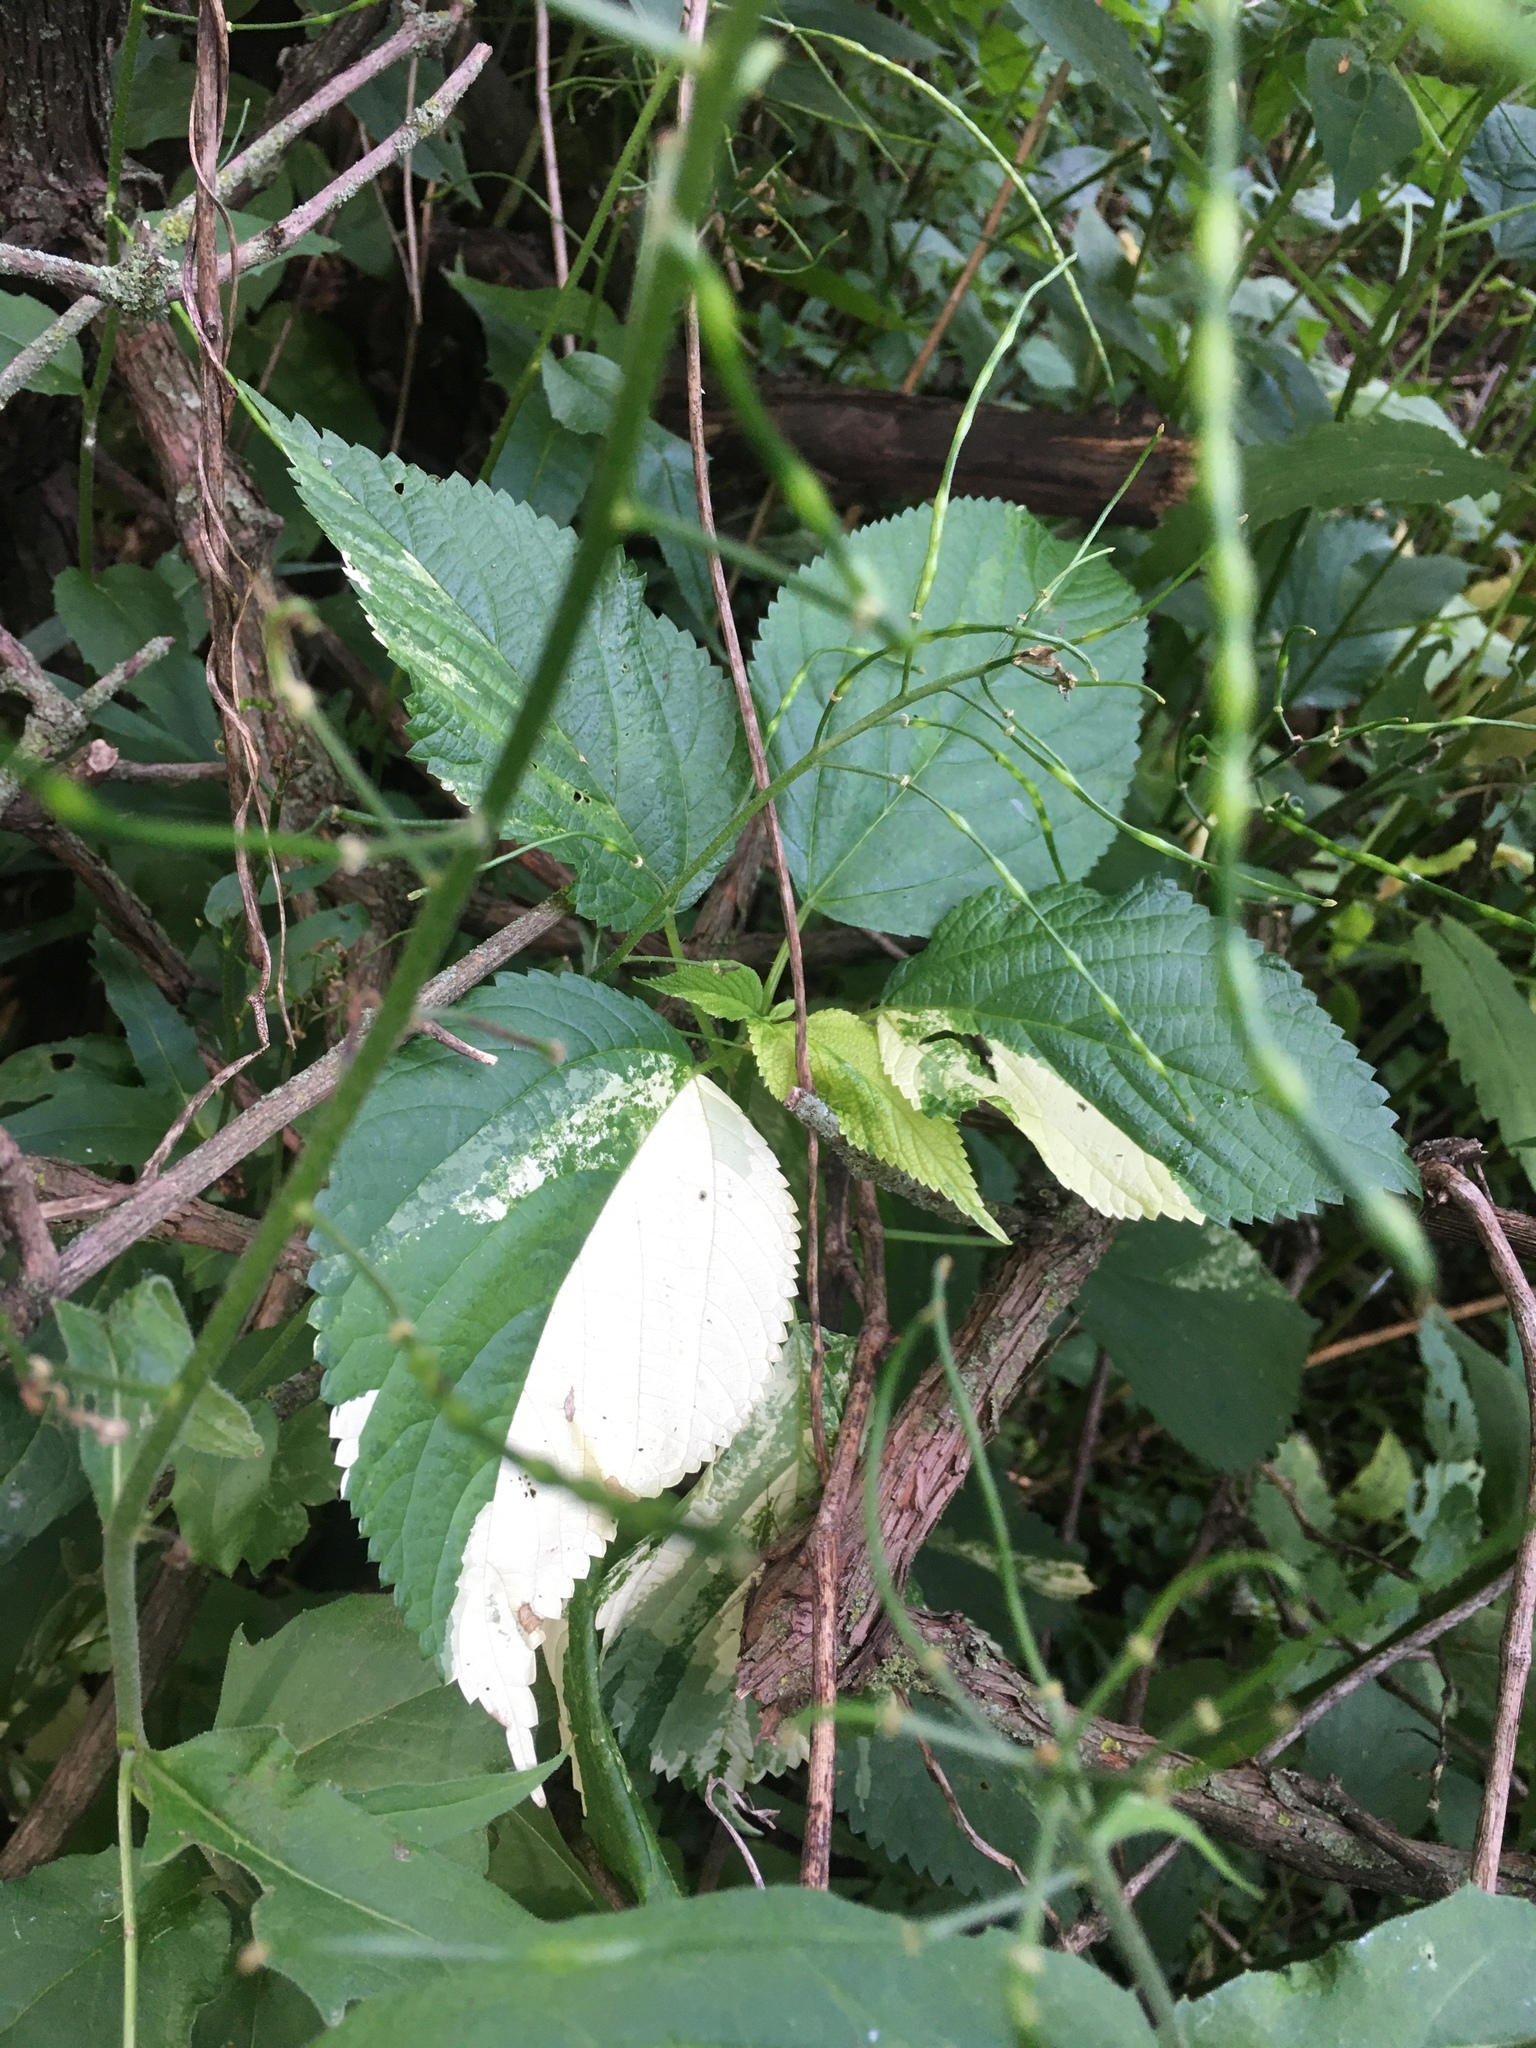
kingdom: Plantae
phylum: Tracheophyta
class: Magnoliopsida
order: Rosales
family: Urticaceae
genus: Laportea
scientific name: Laportea canadensis
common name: Canada nettle
